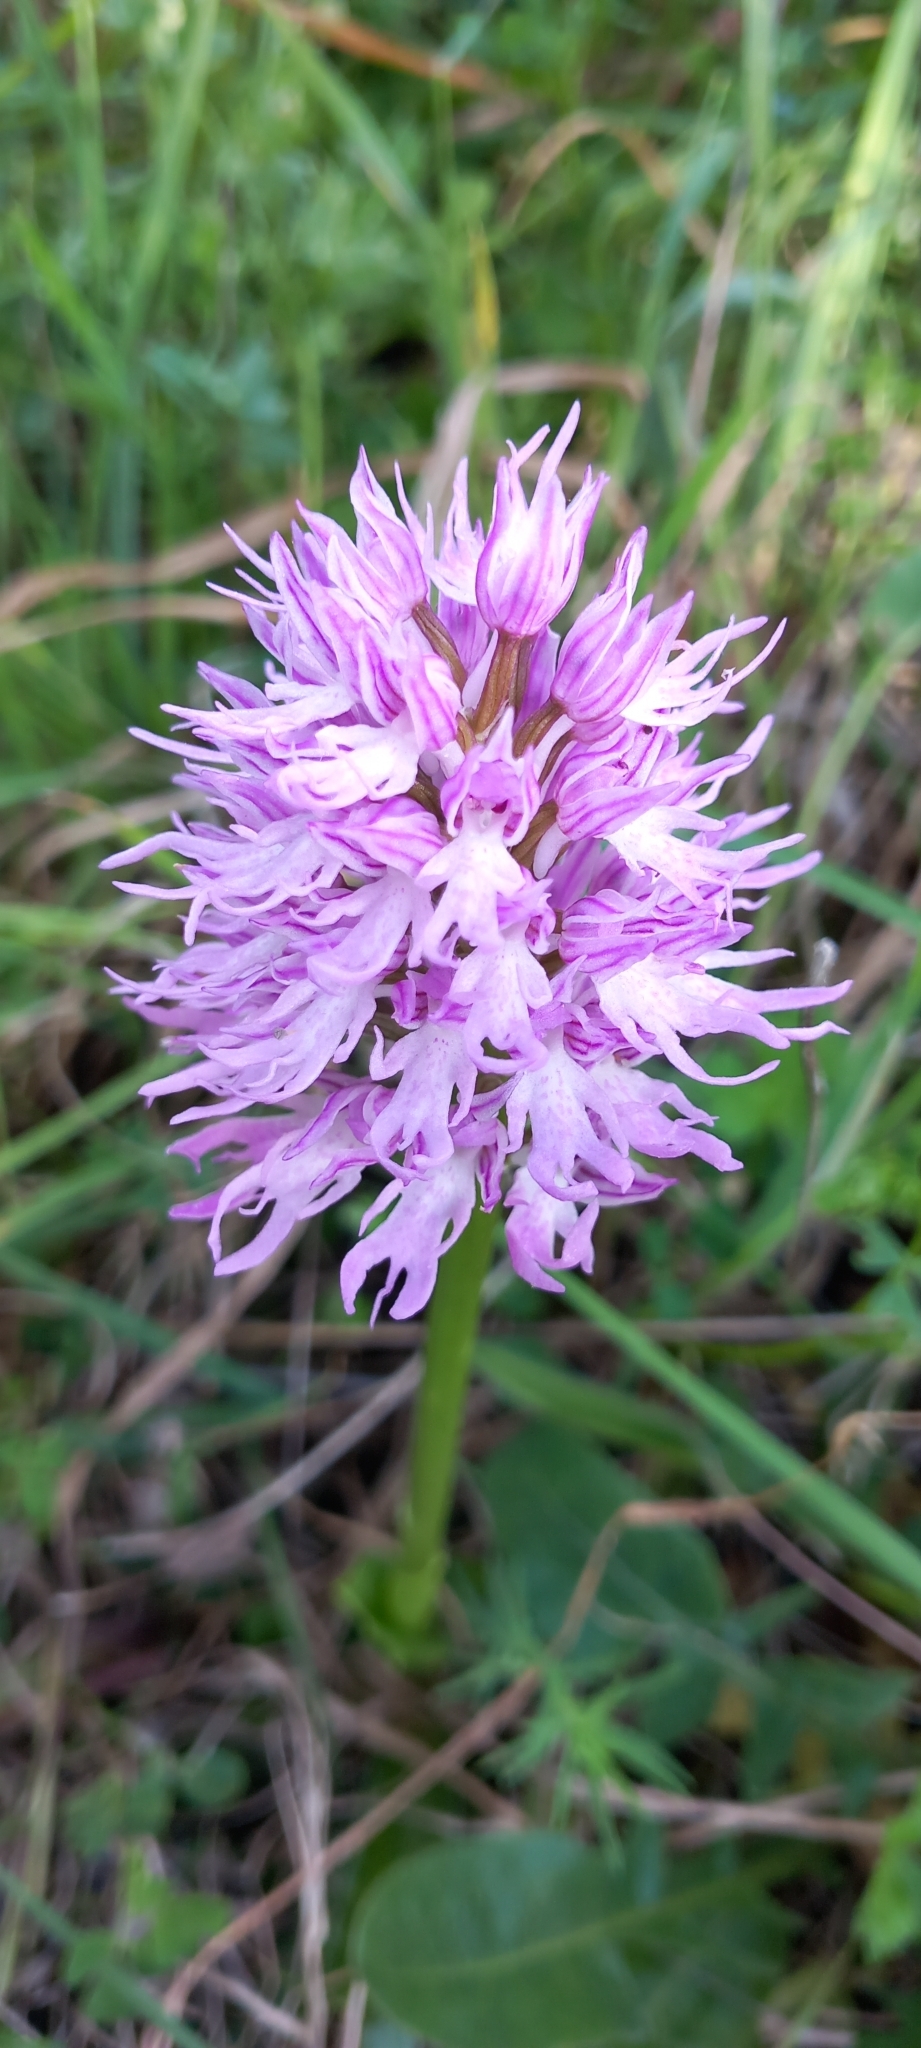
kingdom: Plantae
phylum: Tracheophyta
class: Liliopsida
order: Asparagales
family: Orchidaceae
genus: Orchis
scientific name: Orchis italica
